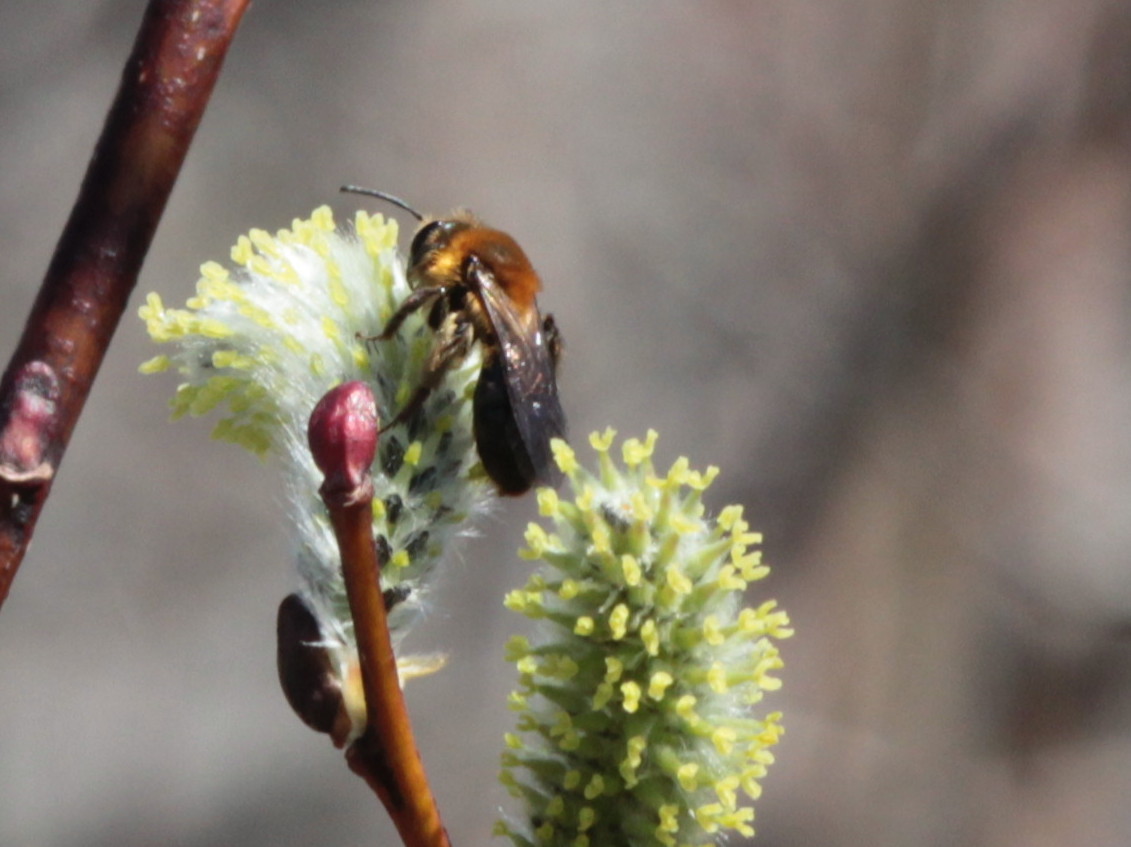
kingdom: Animalia
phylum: Arthropoda
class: Insecta
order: Hymenoptera
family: Andrenidae
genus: Andrena
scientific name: Andrena dunningi
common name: Dunning's miner
